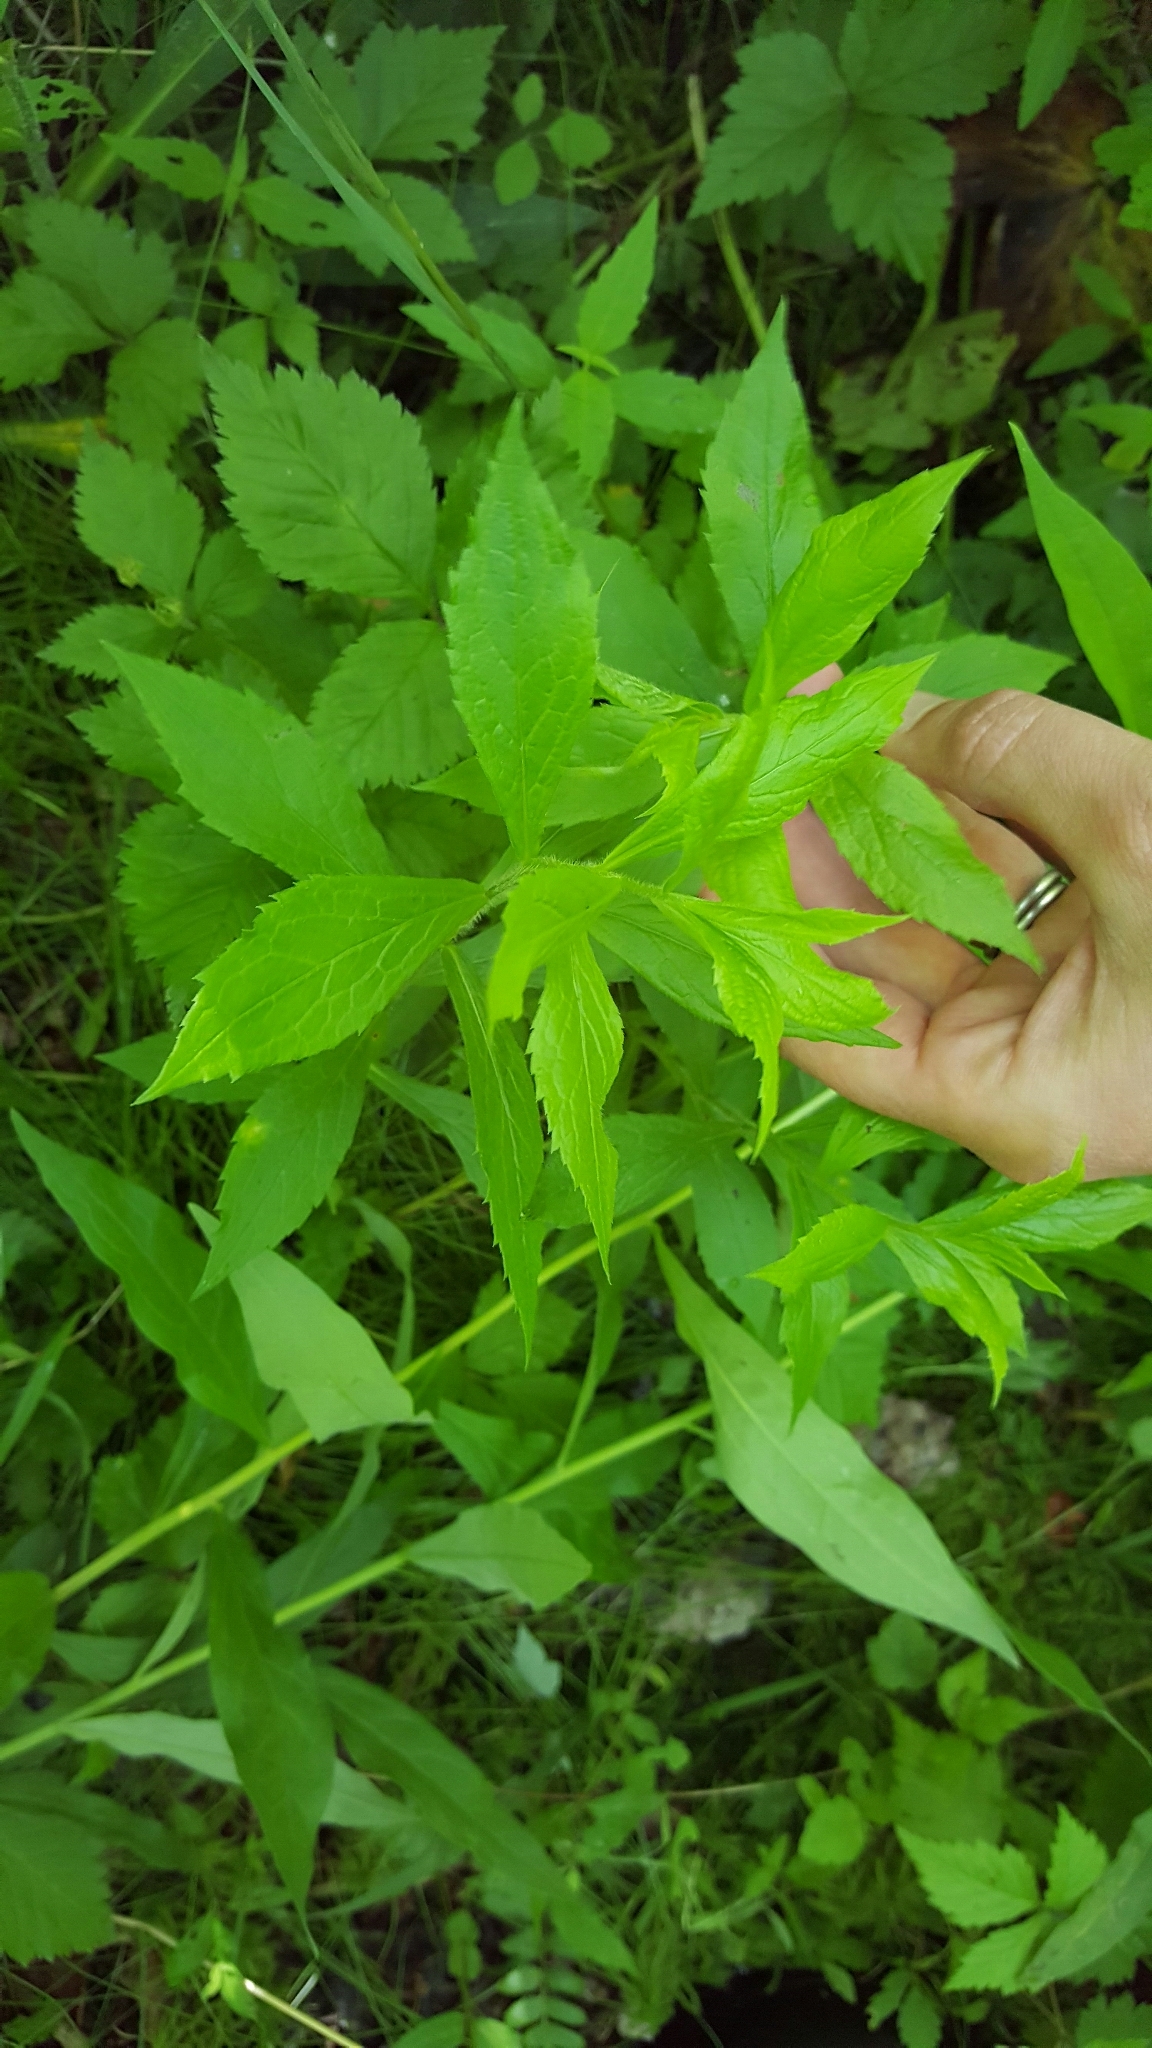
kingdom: Plantae
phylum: Tracheophyta
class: Magnoliopsida
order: Asterales
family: Asteraceae
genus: Solidago
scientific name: Solidago rugosa
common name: Rough-stemmed goldenrod
